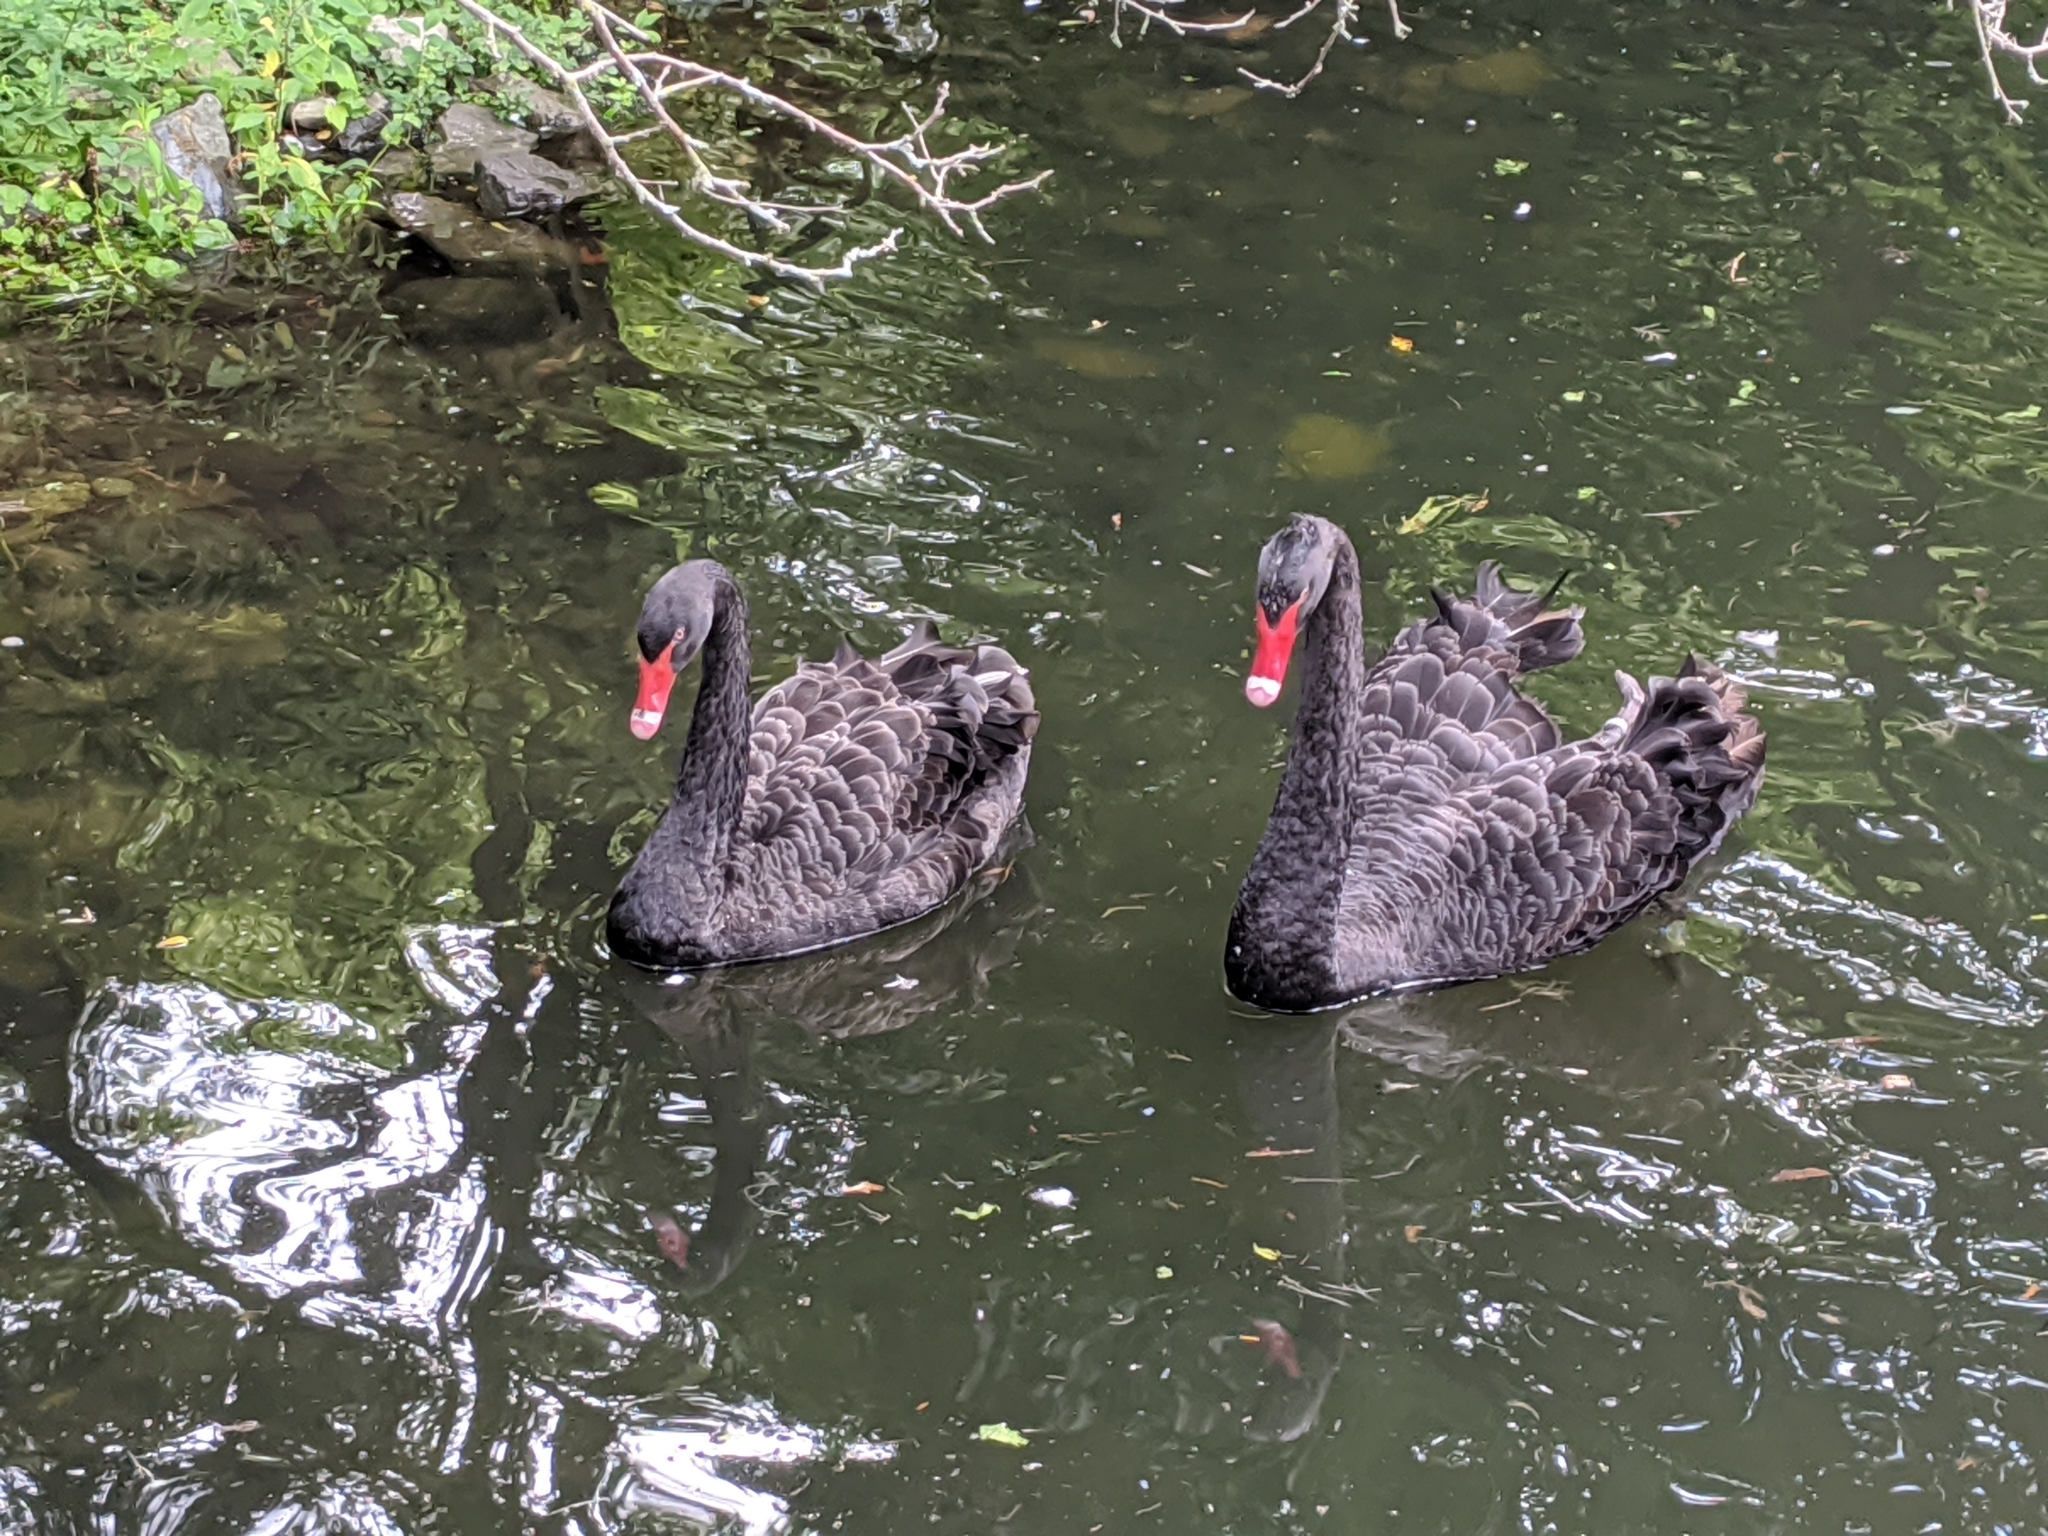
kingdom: Animalia
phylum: Chordata
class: Aves
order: Anseriformes
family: Anatidae
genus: Cygnus
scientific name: Cygnus atratus
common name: Black swan
